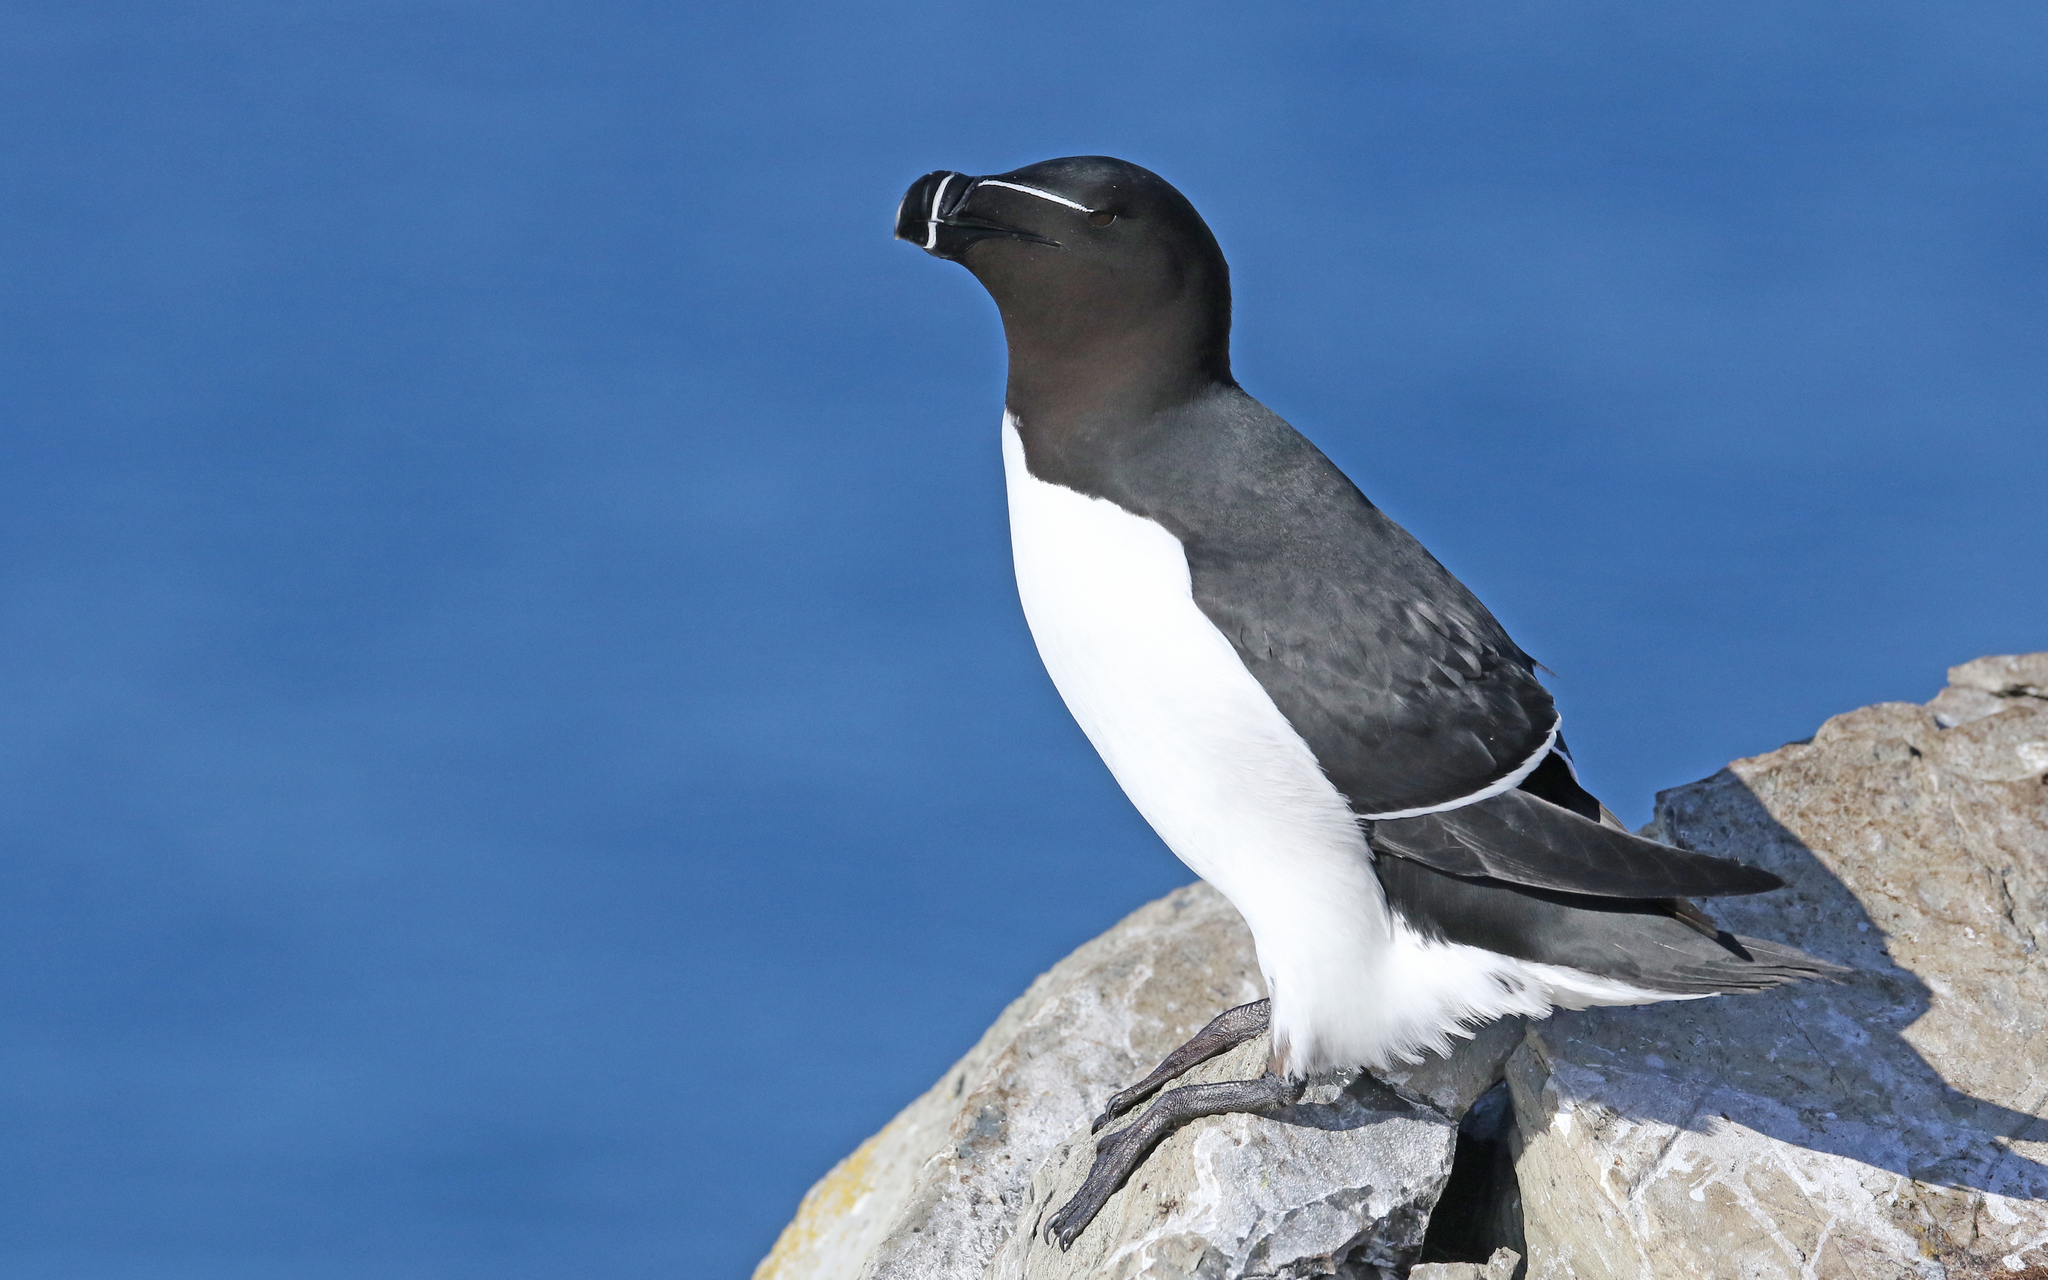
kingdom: Animalia
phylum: Chordata
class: Aves
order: Charadriiformes
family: Alcidae
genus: Alca
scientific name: Alca torda
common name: Razorbill
